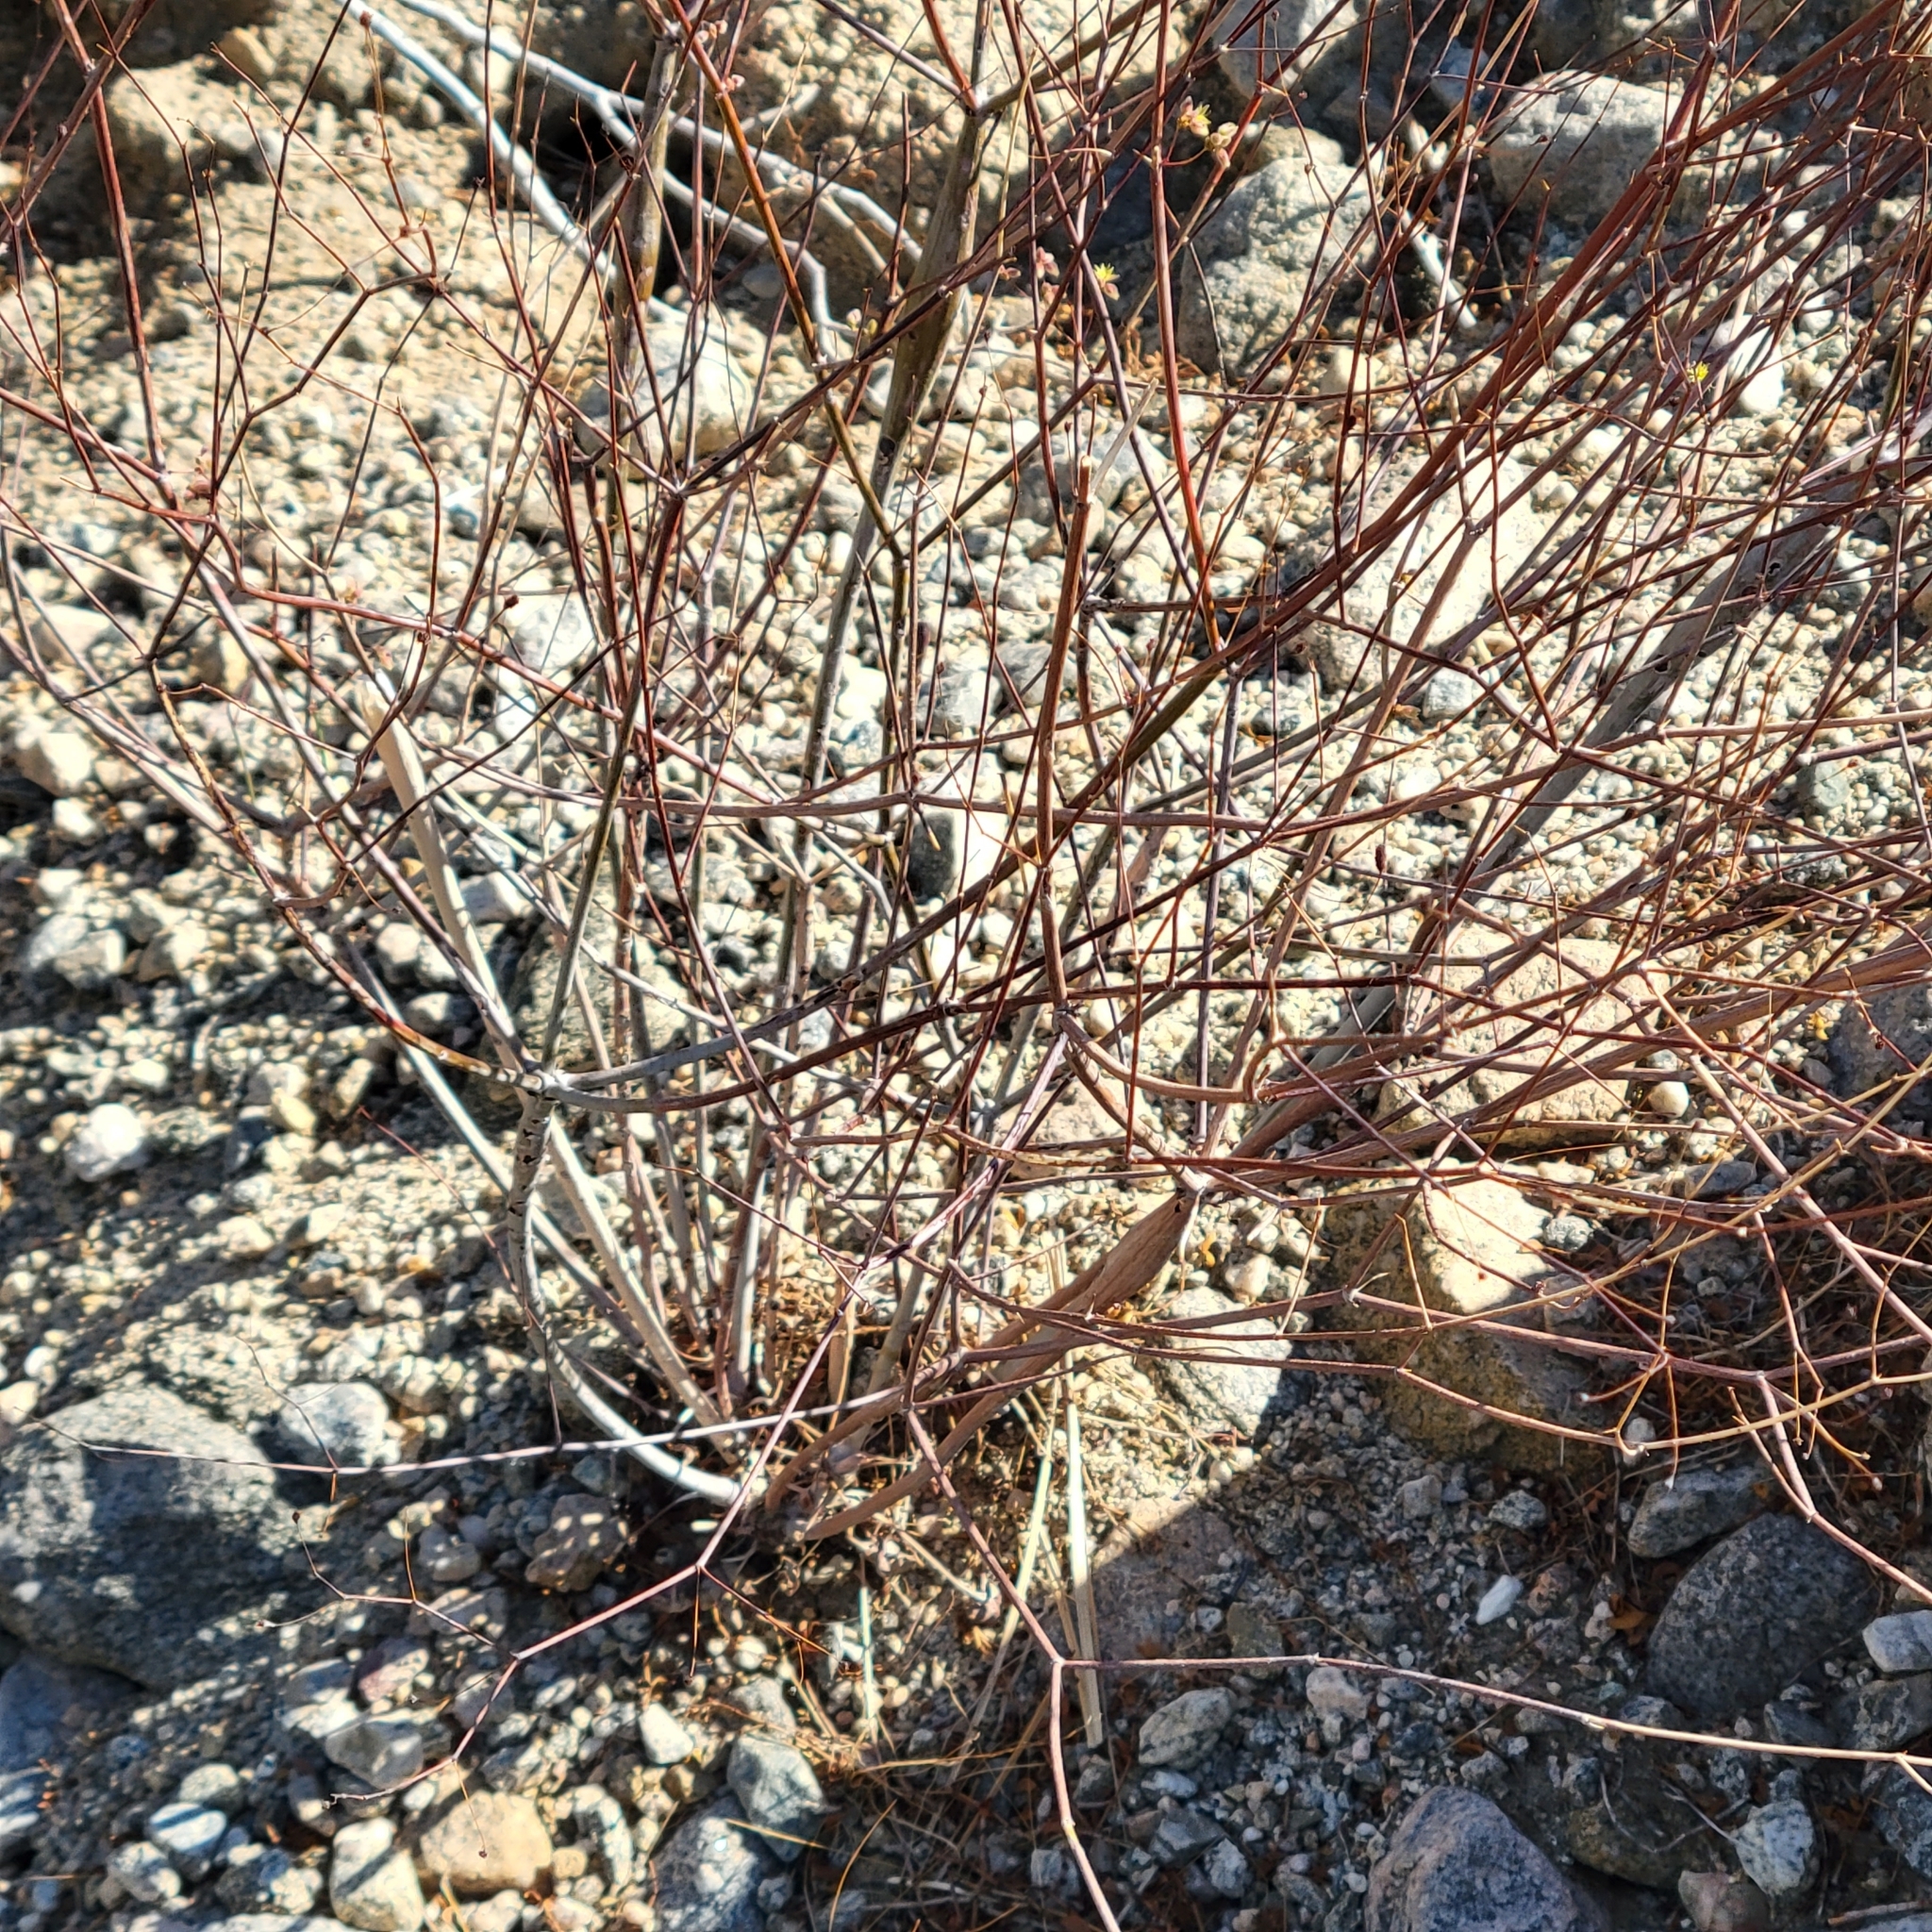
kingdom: Plantae
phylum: Tracheophyta
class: Magnoliopsida
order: Caryophyllales
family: Polygonaceae
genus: Eriogonum
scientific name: Eriogonum inflatum
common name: Desert trumpet
